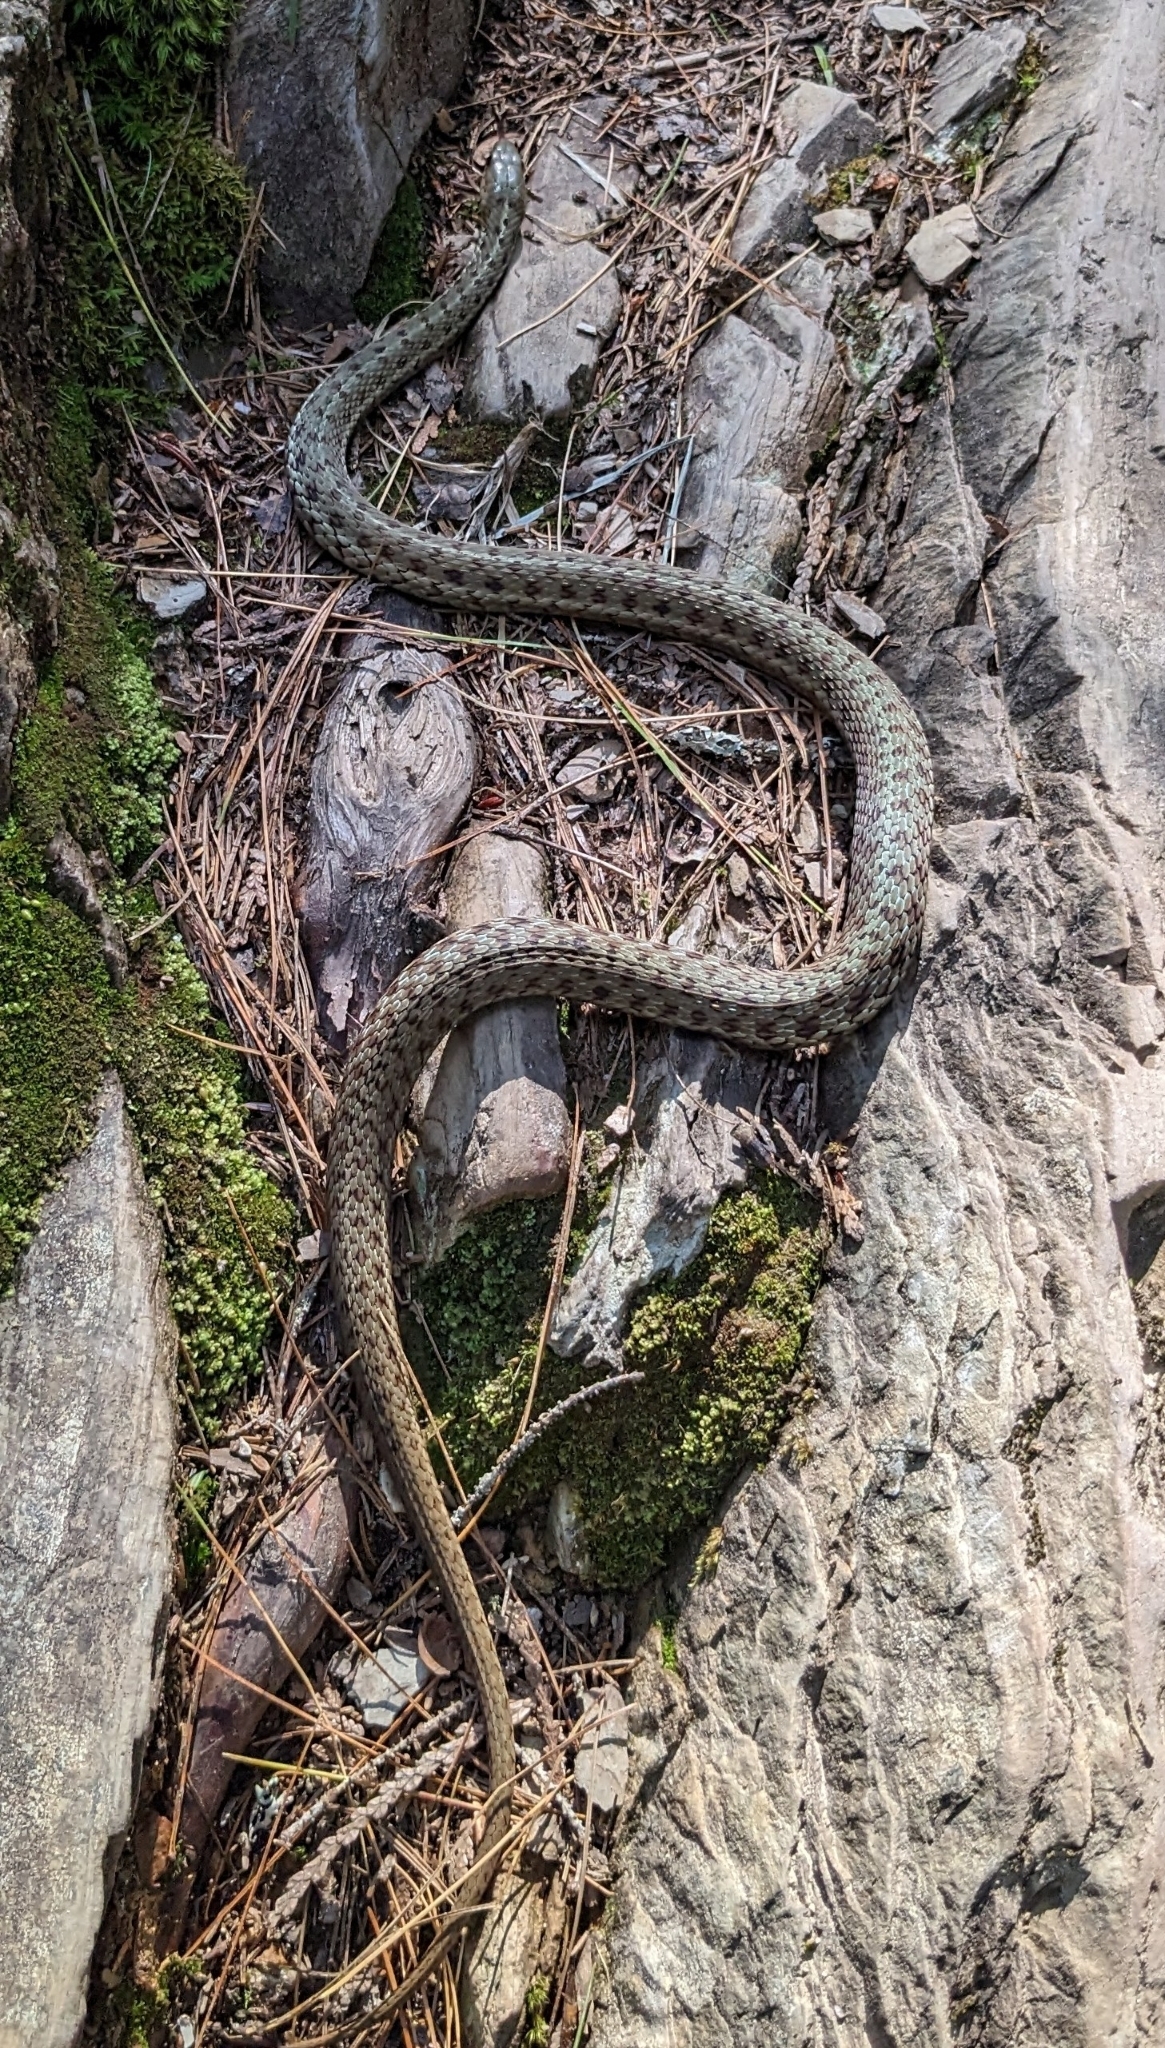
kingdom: Animalia
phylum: Chordata
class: Squamata
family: Colubridae
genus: Thamnophis
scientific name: Thamnophis sirtalis
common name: Common garter snake
